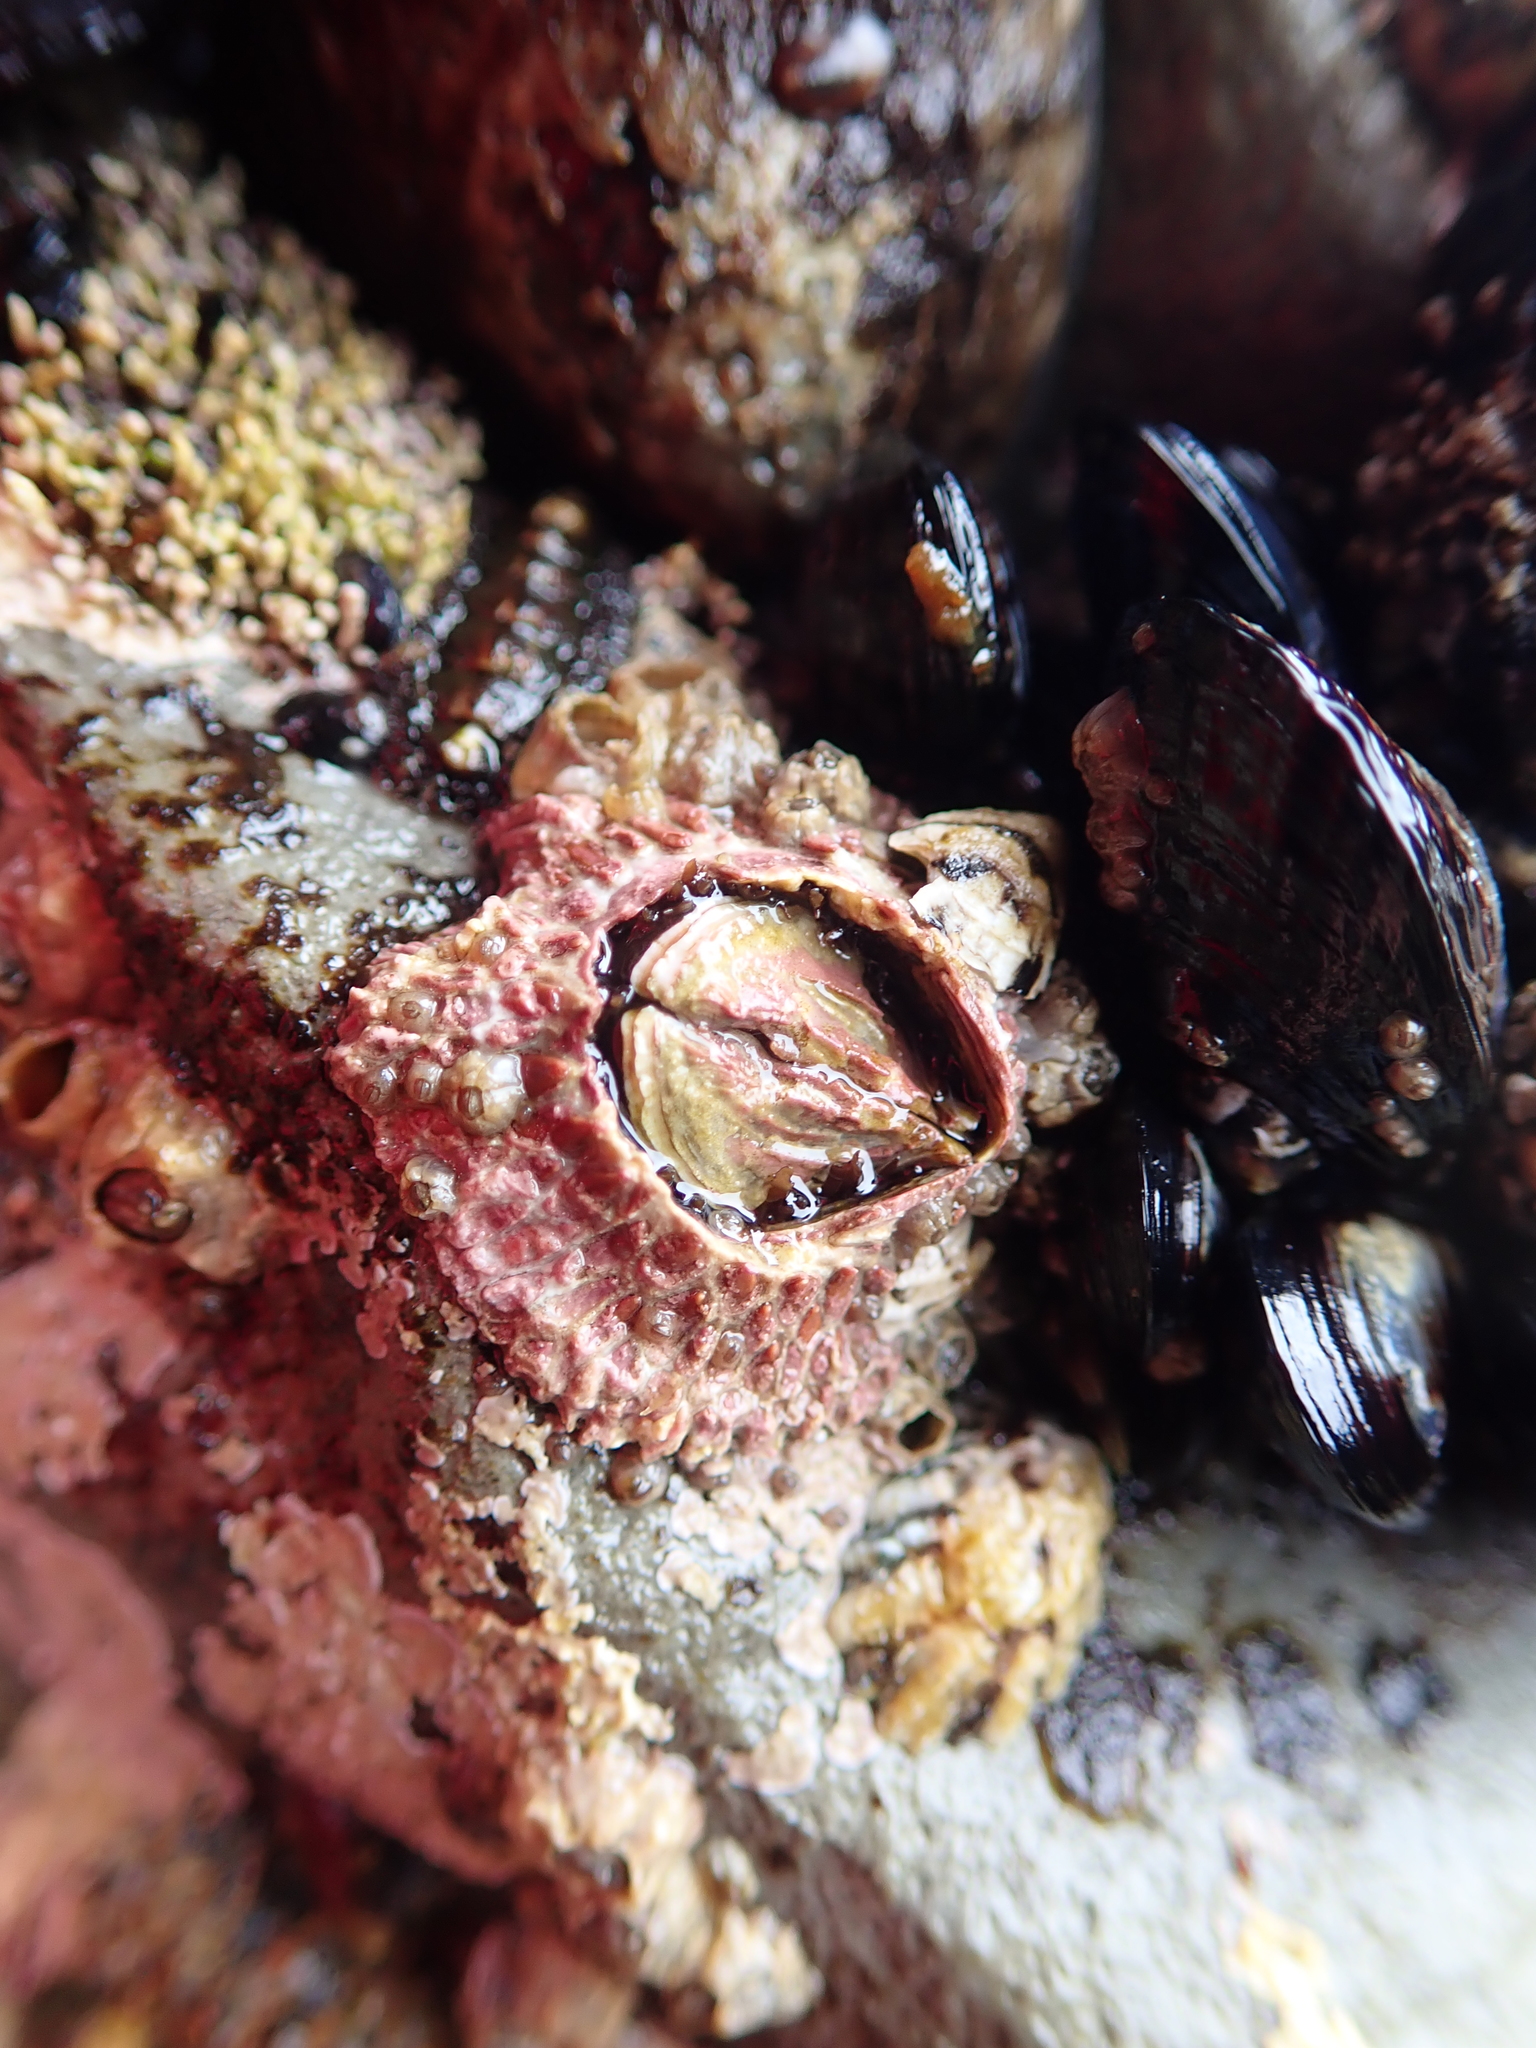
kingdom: Animalia
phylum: Arthropoda
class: Maxillopoda
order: Sessilia
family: Tetraclitidae
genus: Tetraclita
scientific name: Tetraclita rubescens
